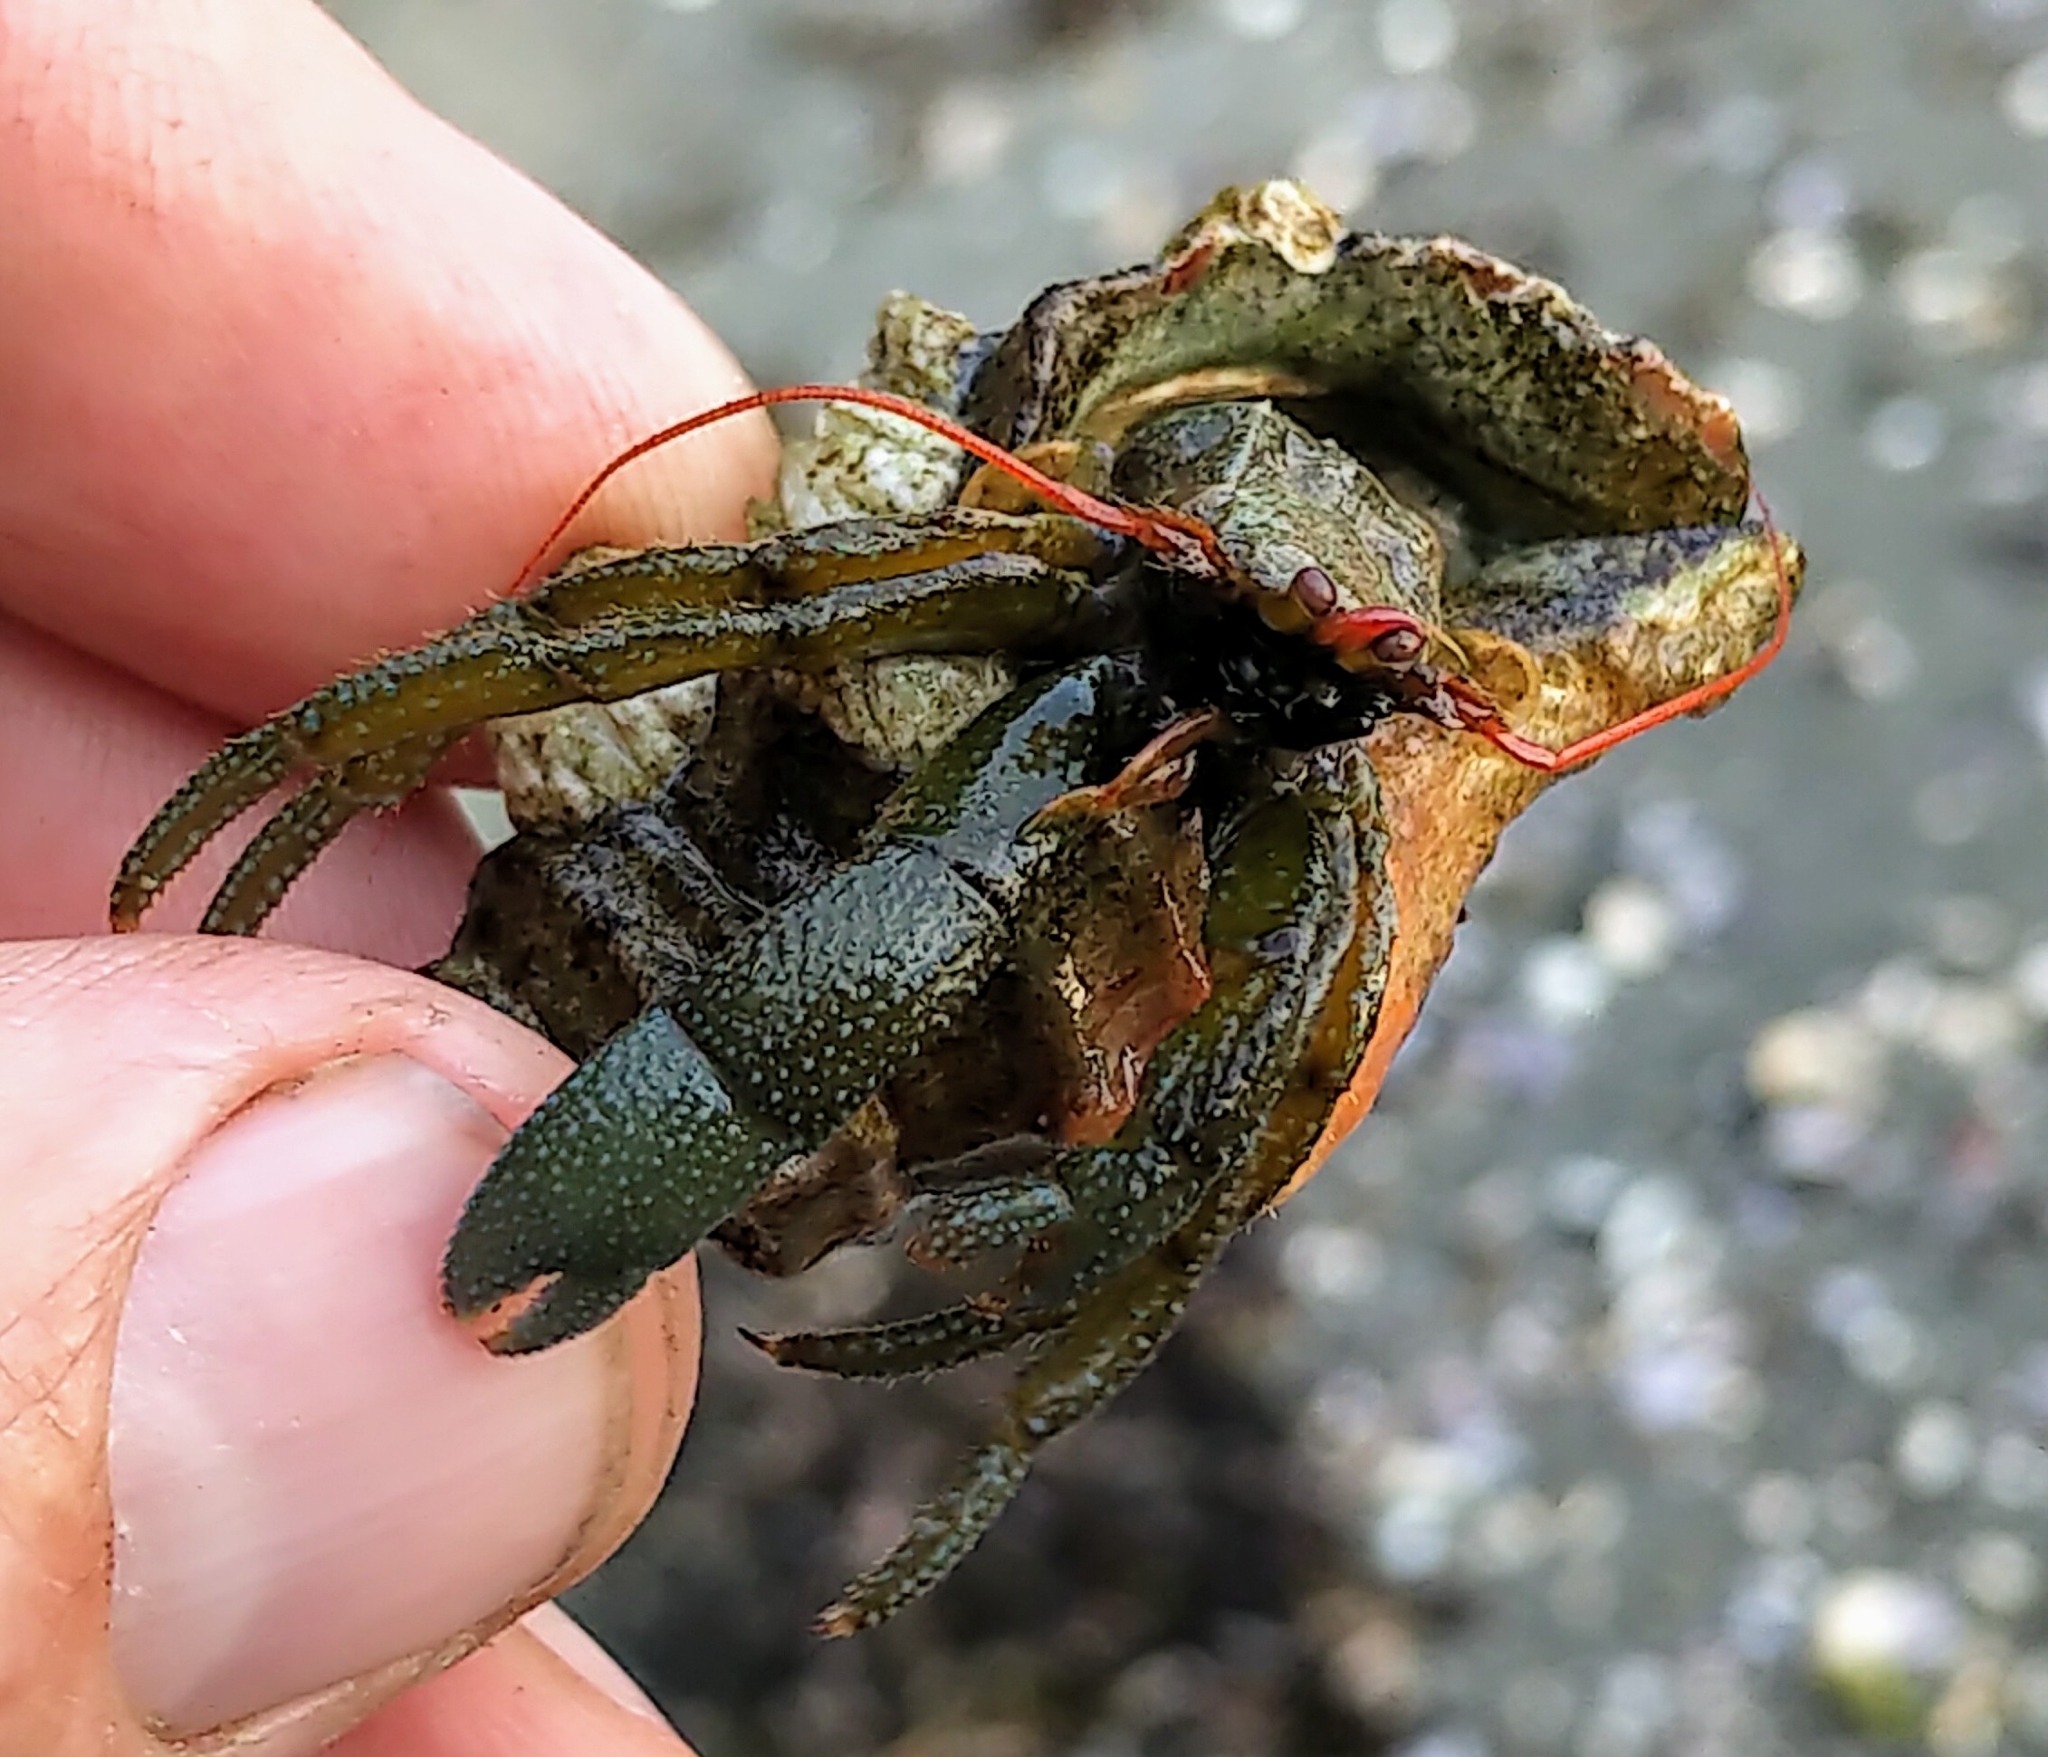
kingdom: Animalia
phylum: Arthropoda
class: Malacostraca
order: Decapoda
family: Paguridae
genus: Pagurus
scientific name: Pagurus granosimanus
